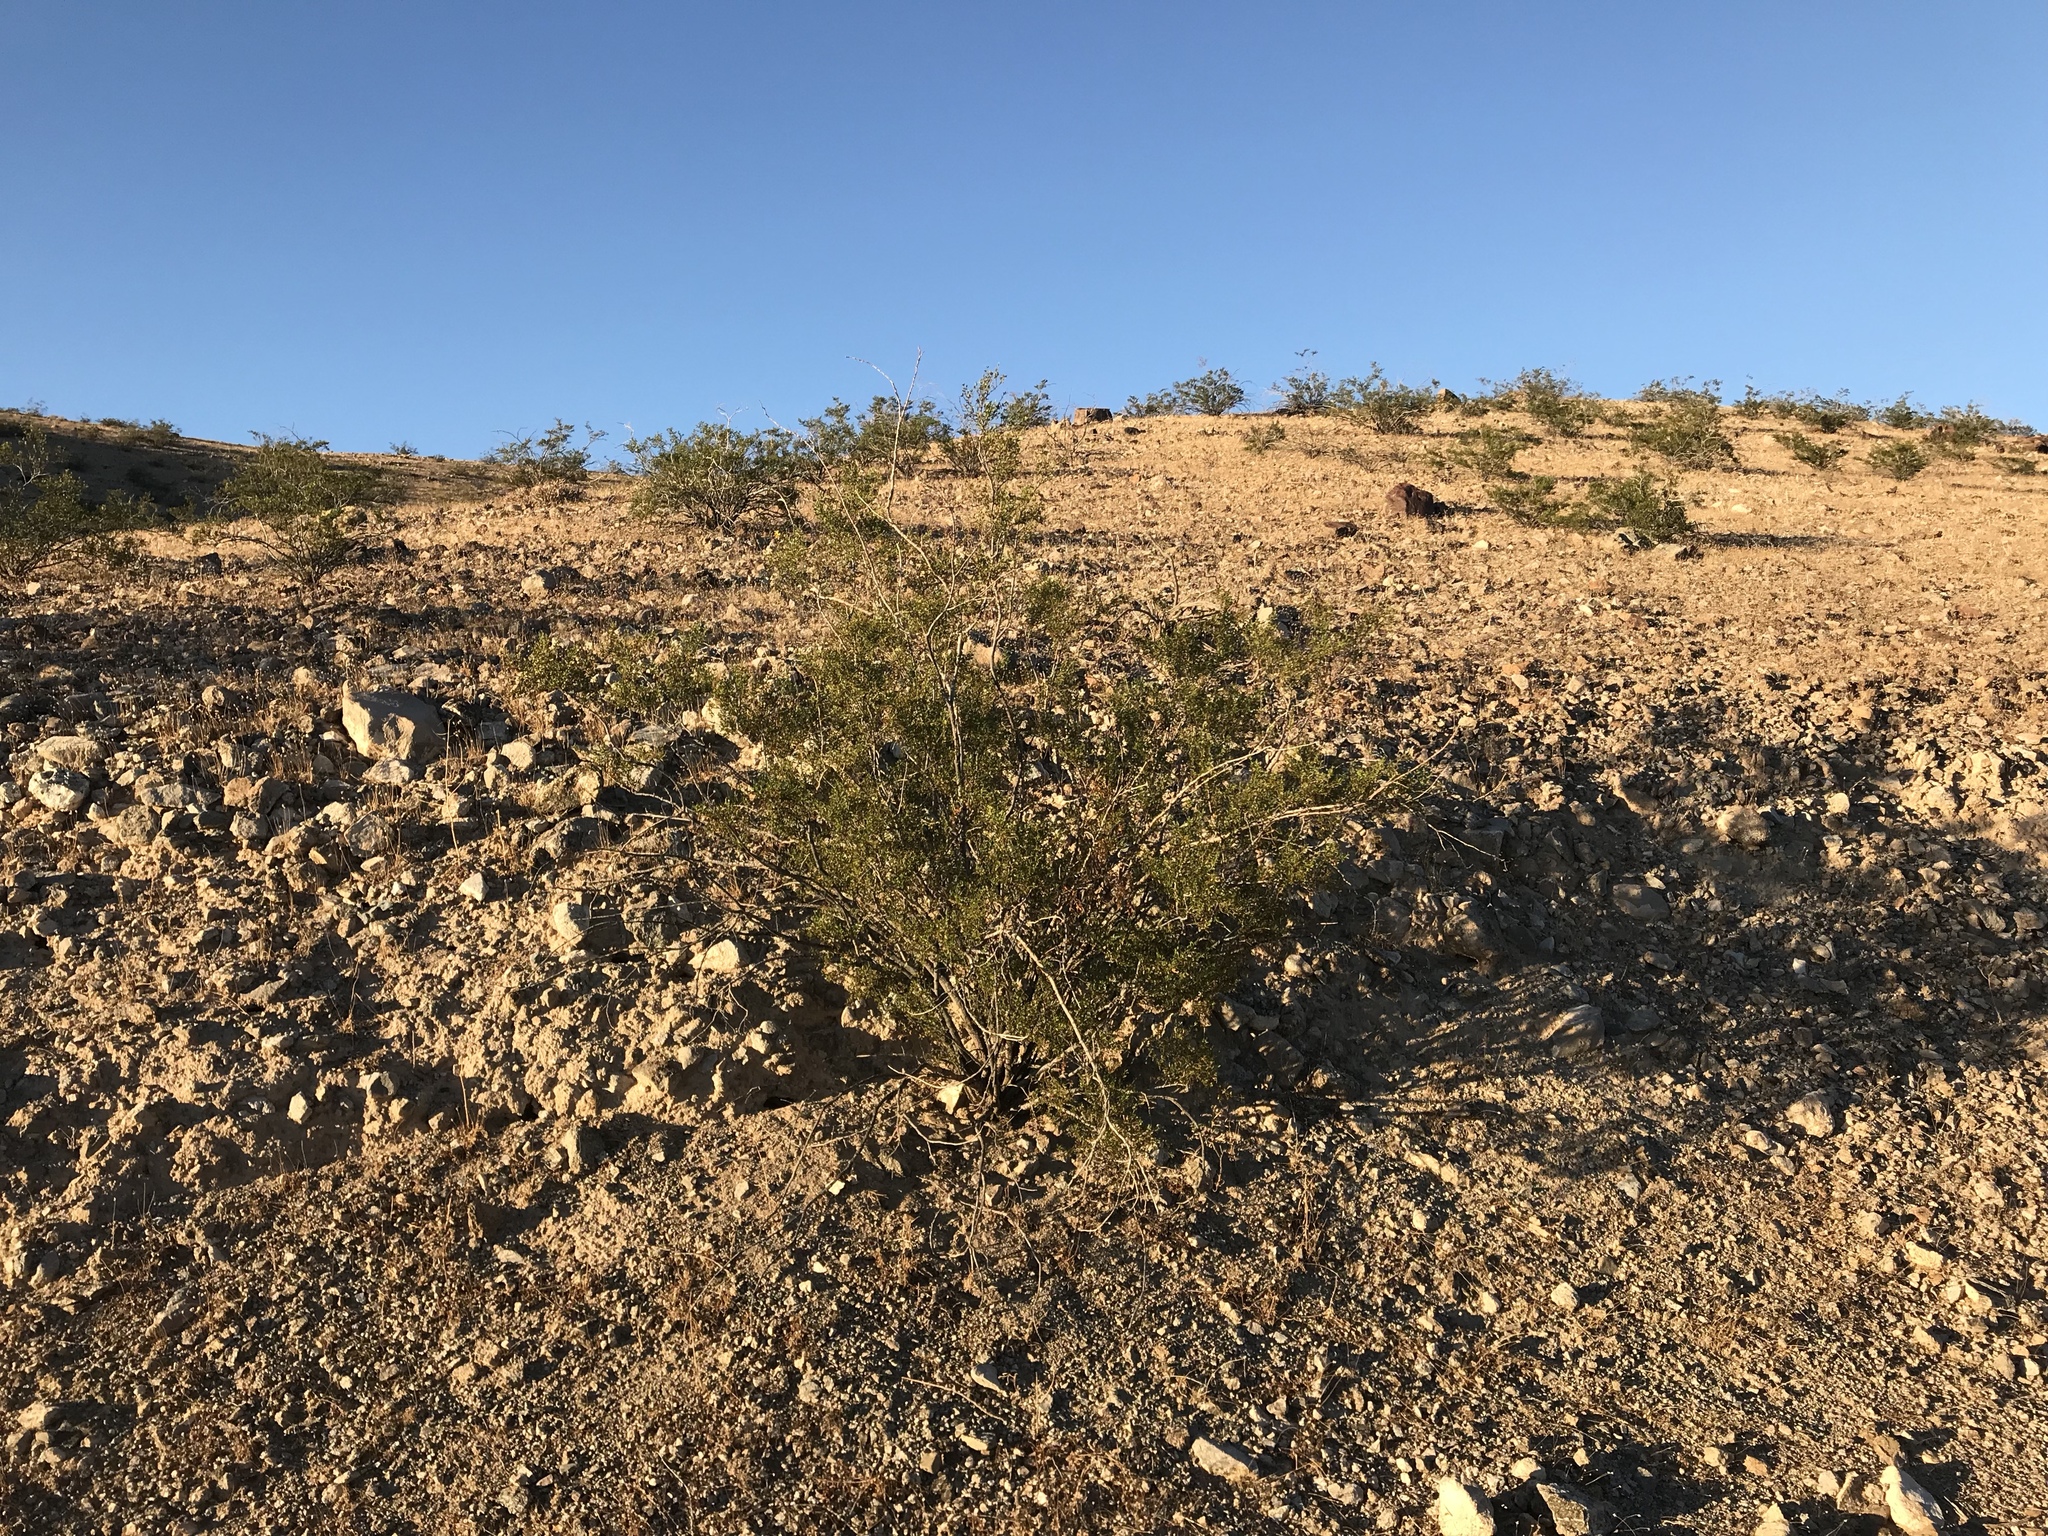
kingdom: Plantae
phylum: Tracheophyta
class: Magnoliopsida
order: Zygophyllales
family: Zygophyllaceae
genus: Larrea
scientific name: Larrea tridentata
